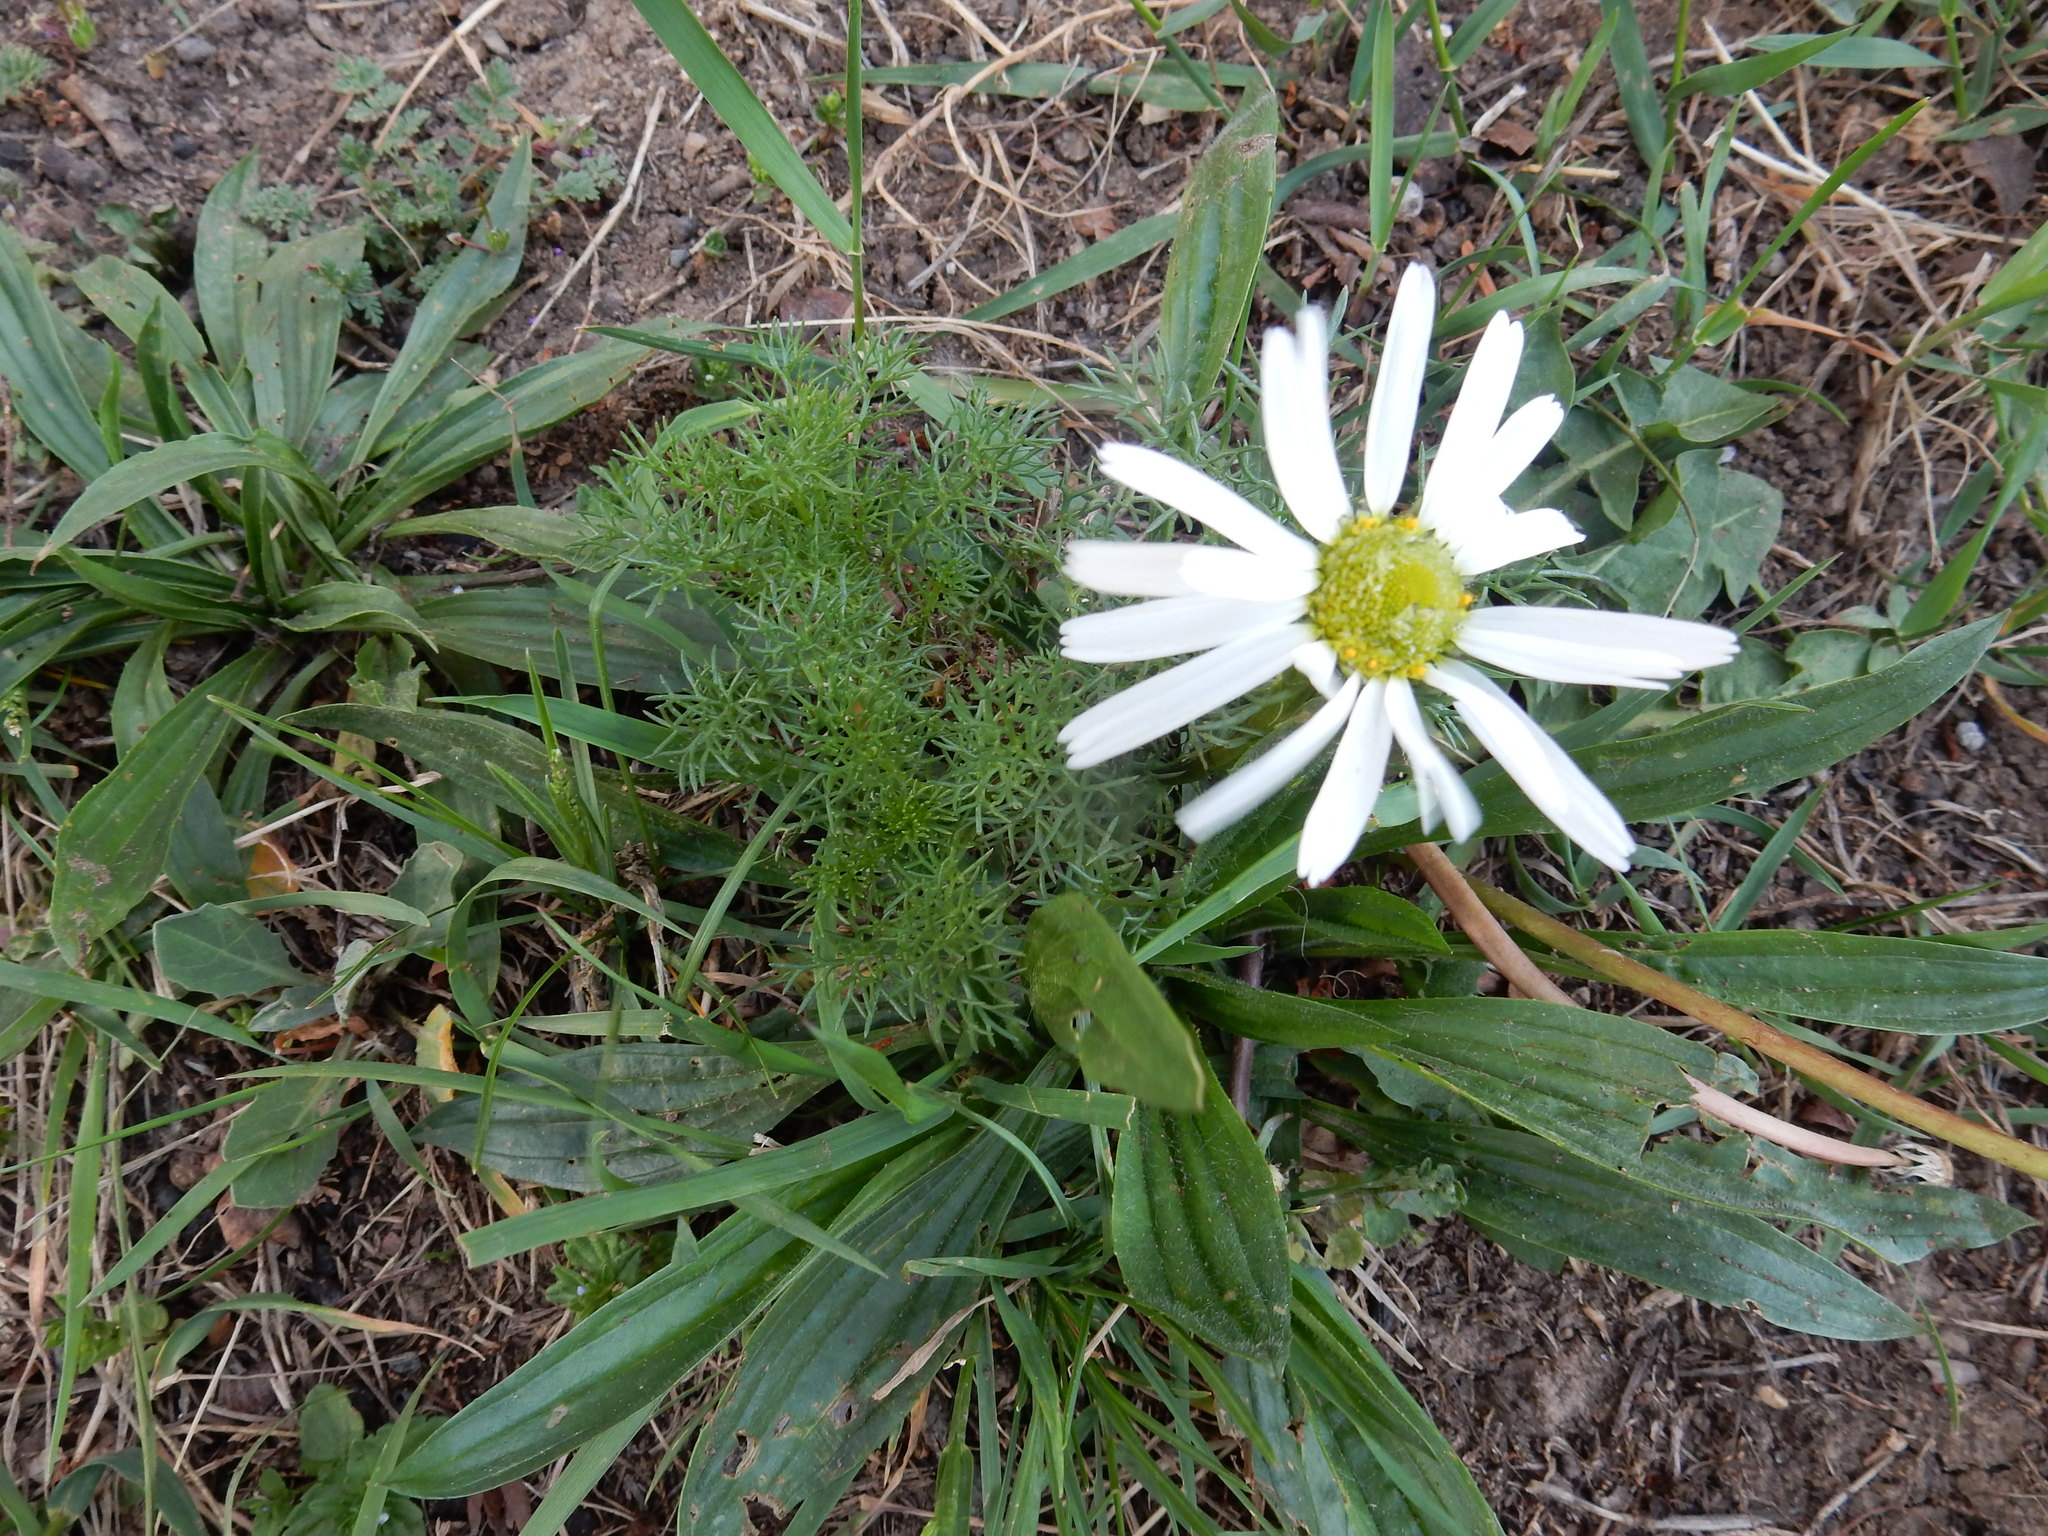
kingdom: Plantae
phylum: Tracheophyta
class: Magnoliopsida
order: Asterales
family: Asteraceae
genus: Tripleurospermum
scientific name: Tripleurospermum inodorum
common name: Scentless mayweed
